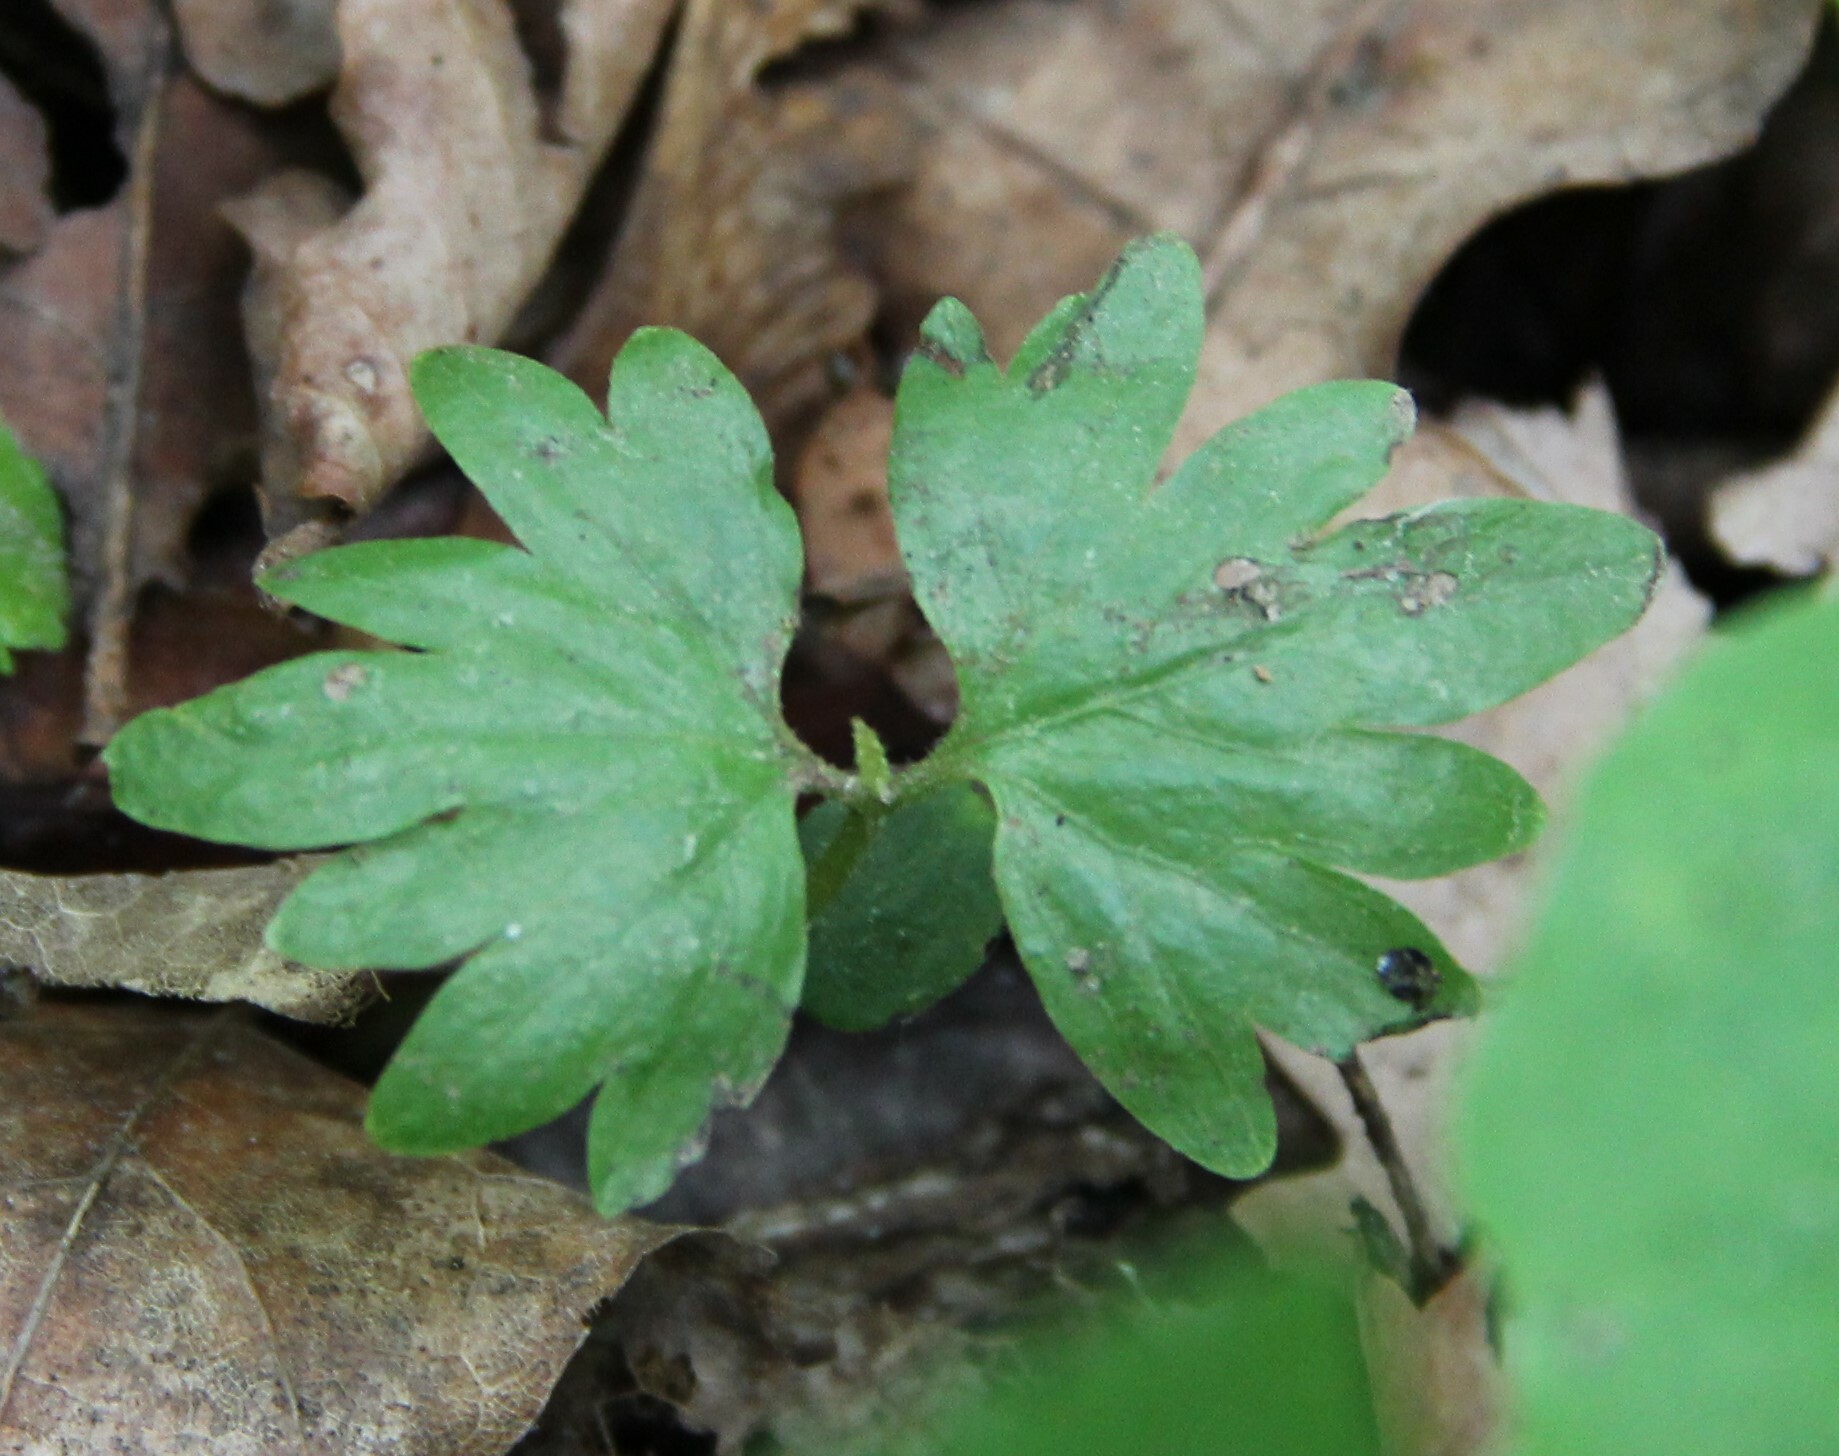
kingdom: Plantae
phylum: Tracheophyta
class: Magnoliopsida
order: Malvales
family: Malvaceae
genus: Tilia
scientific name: Tilia cordata
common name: Small-leaved lime
